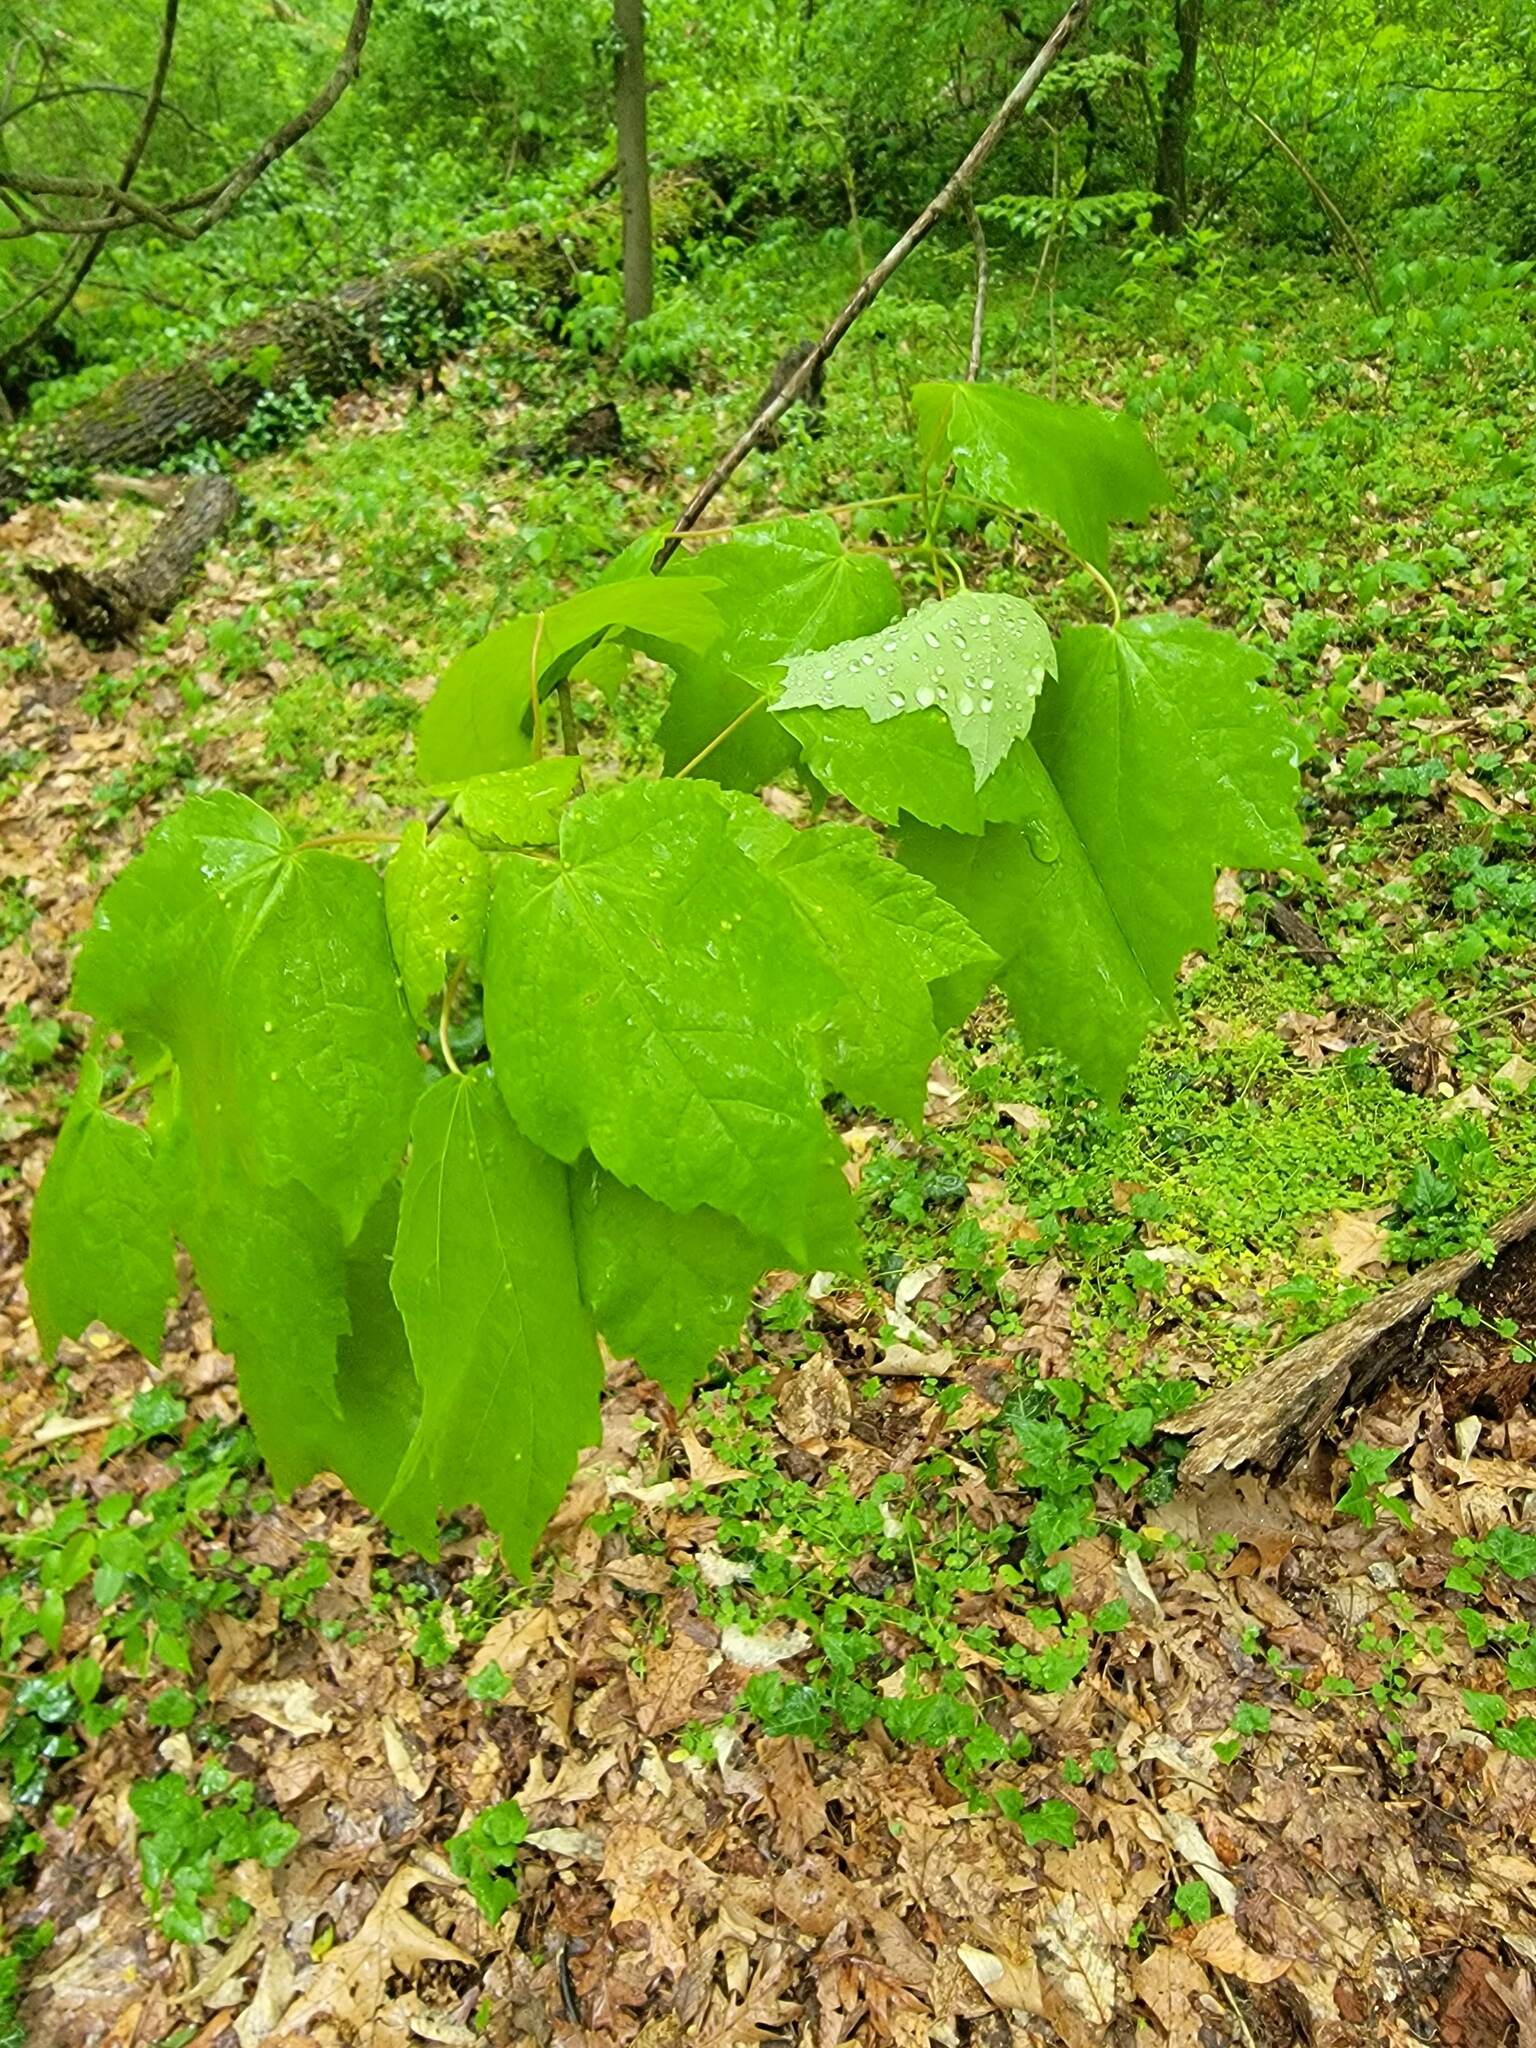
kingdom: Plantae
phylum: Tracheophyta
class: Magnoliopsida
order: Sapindales
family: Sapindaceae
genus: Acer
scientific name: Acer rubrum
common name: Red maple
